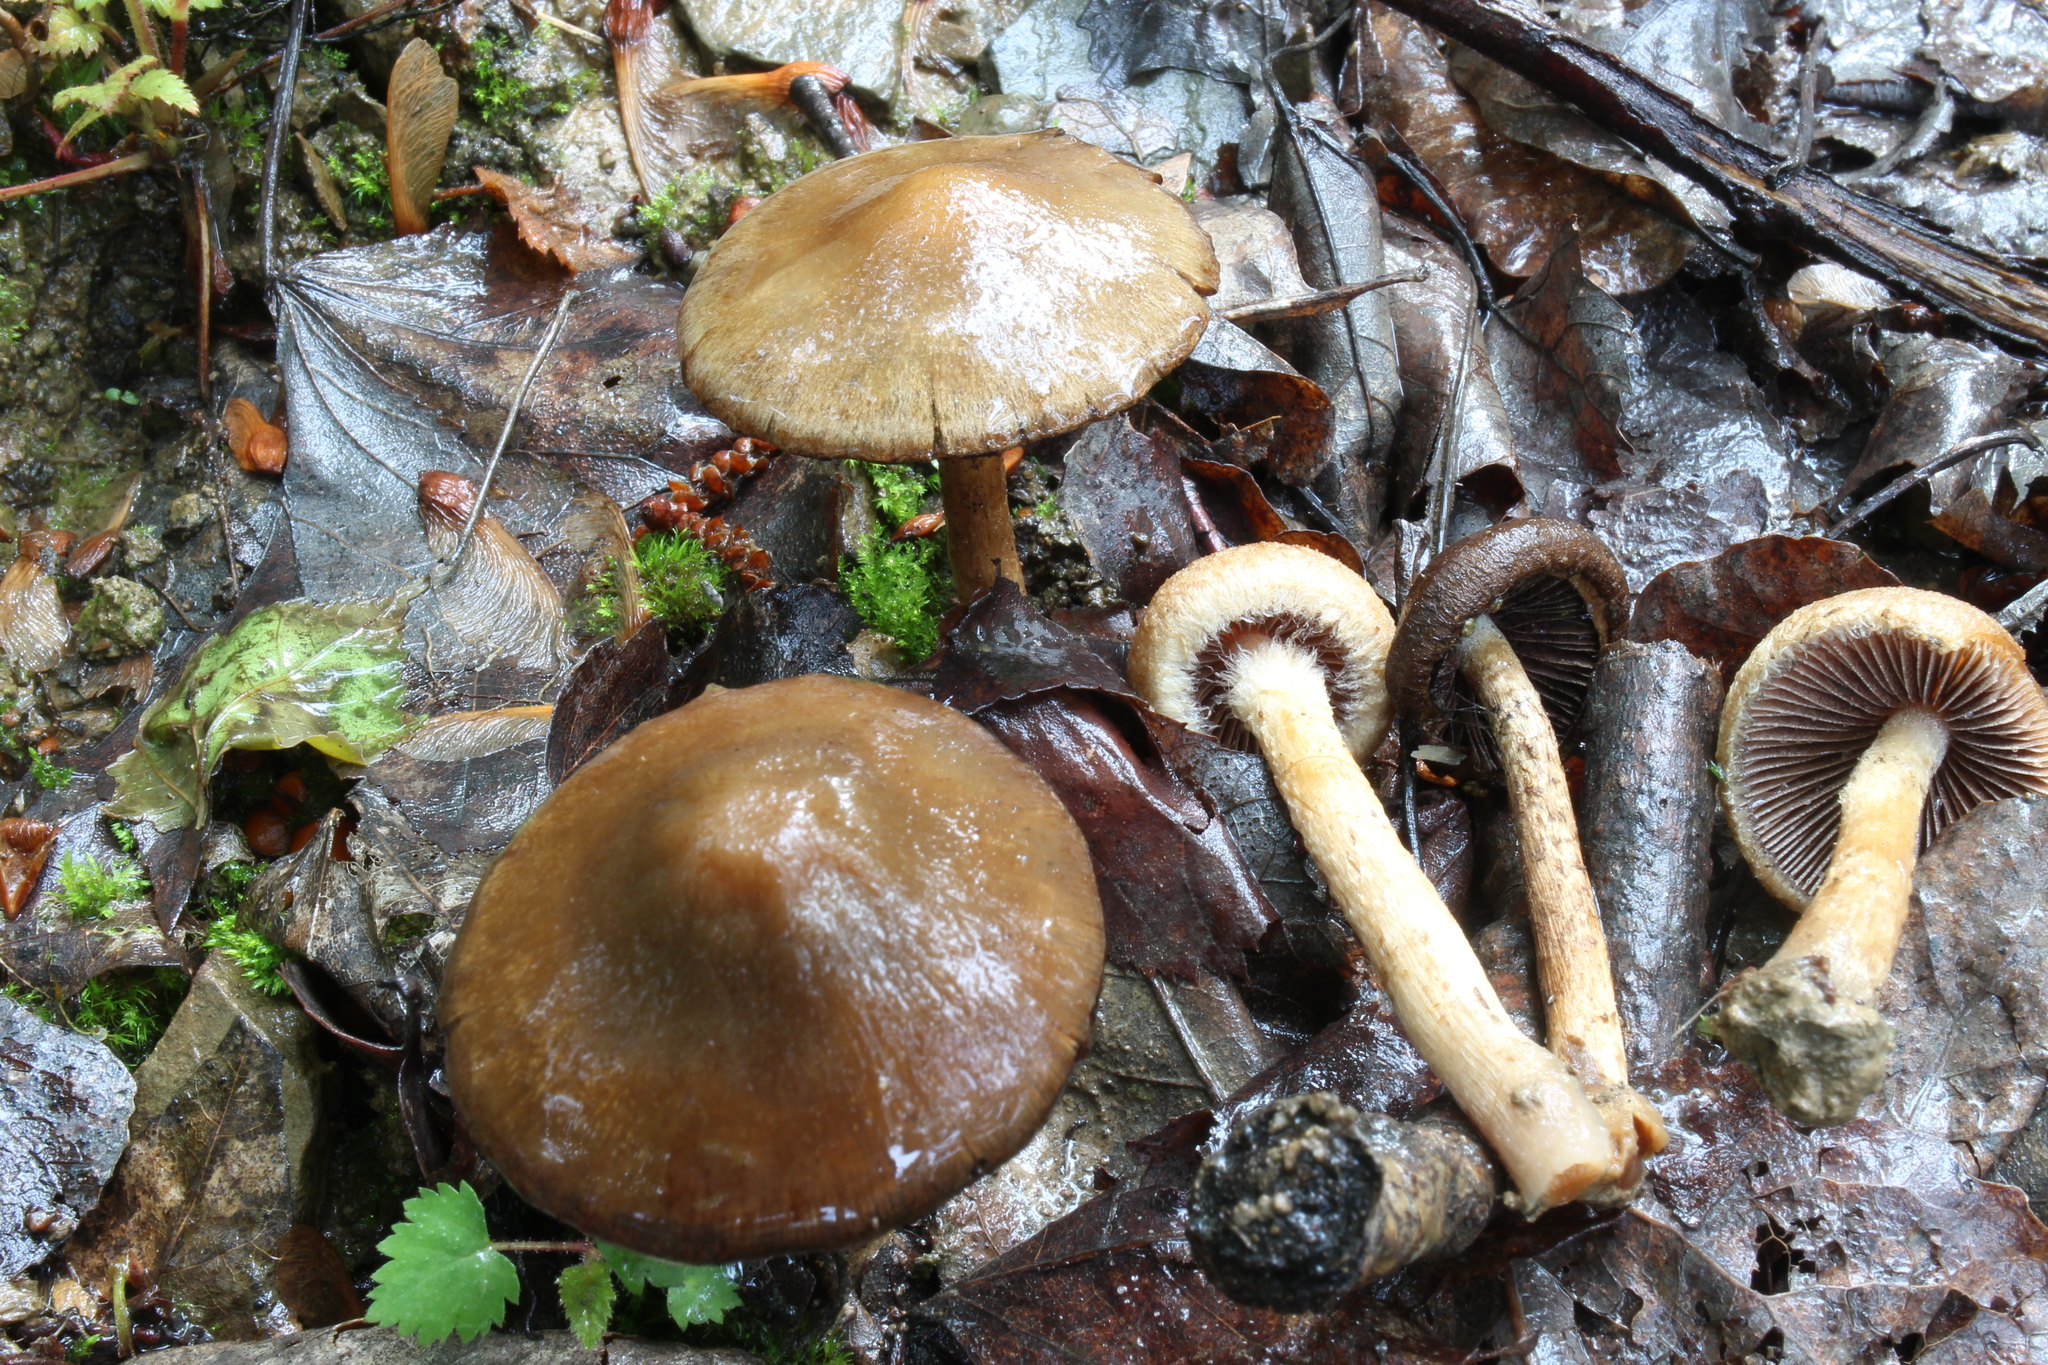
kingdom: Fungi
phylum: Basidiomycota
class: Agaricomycetes
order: Agaricales
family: Psathyrellaceae
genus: Lacrymaria
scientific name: Lacrymaria lacrymabunda
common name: Weeping widow
